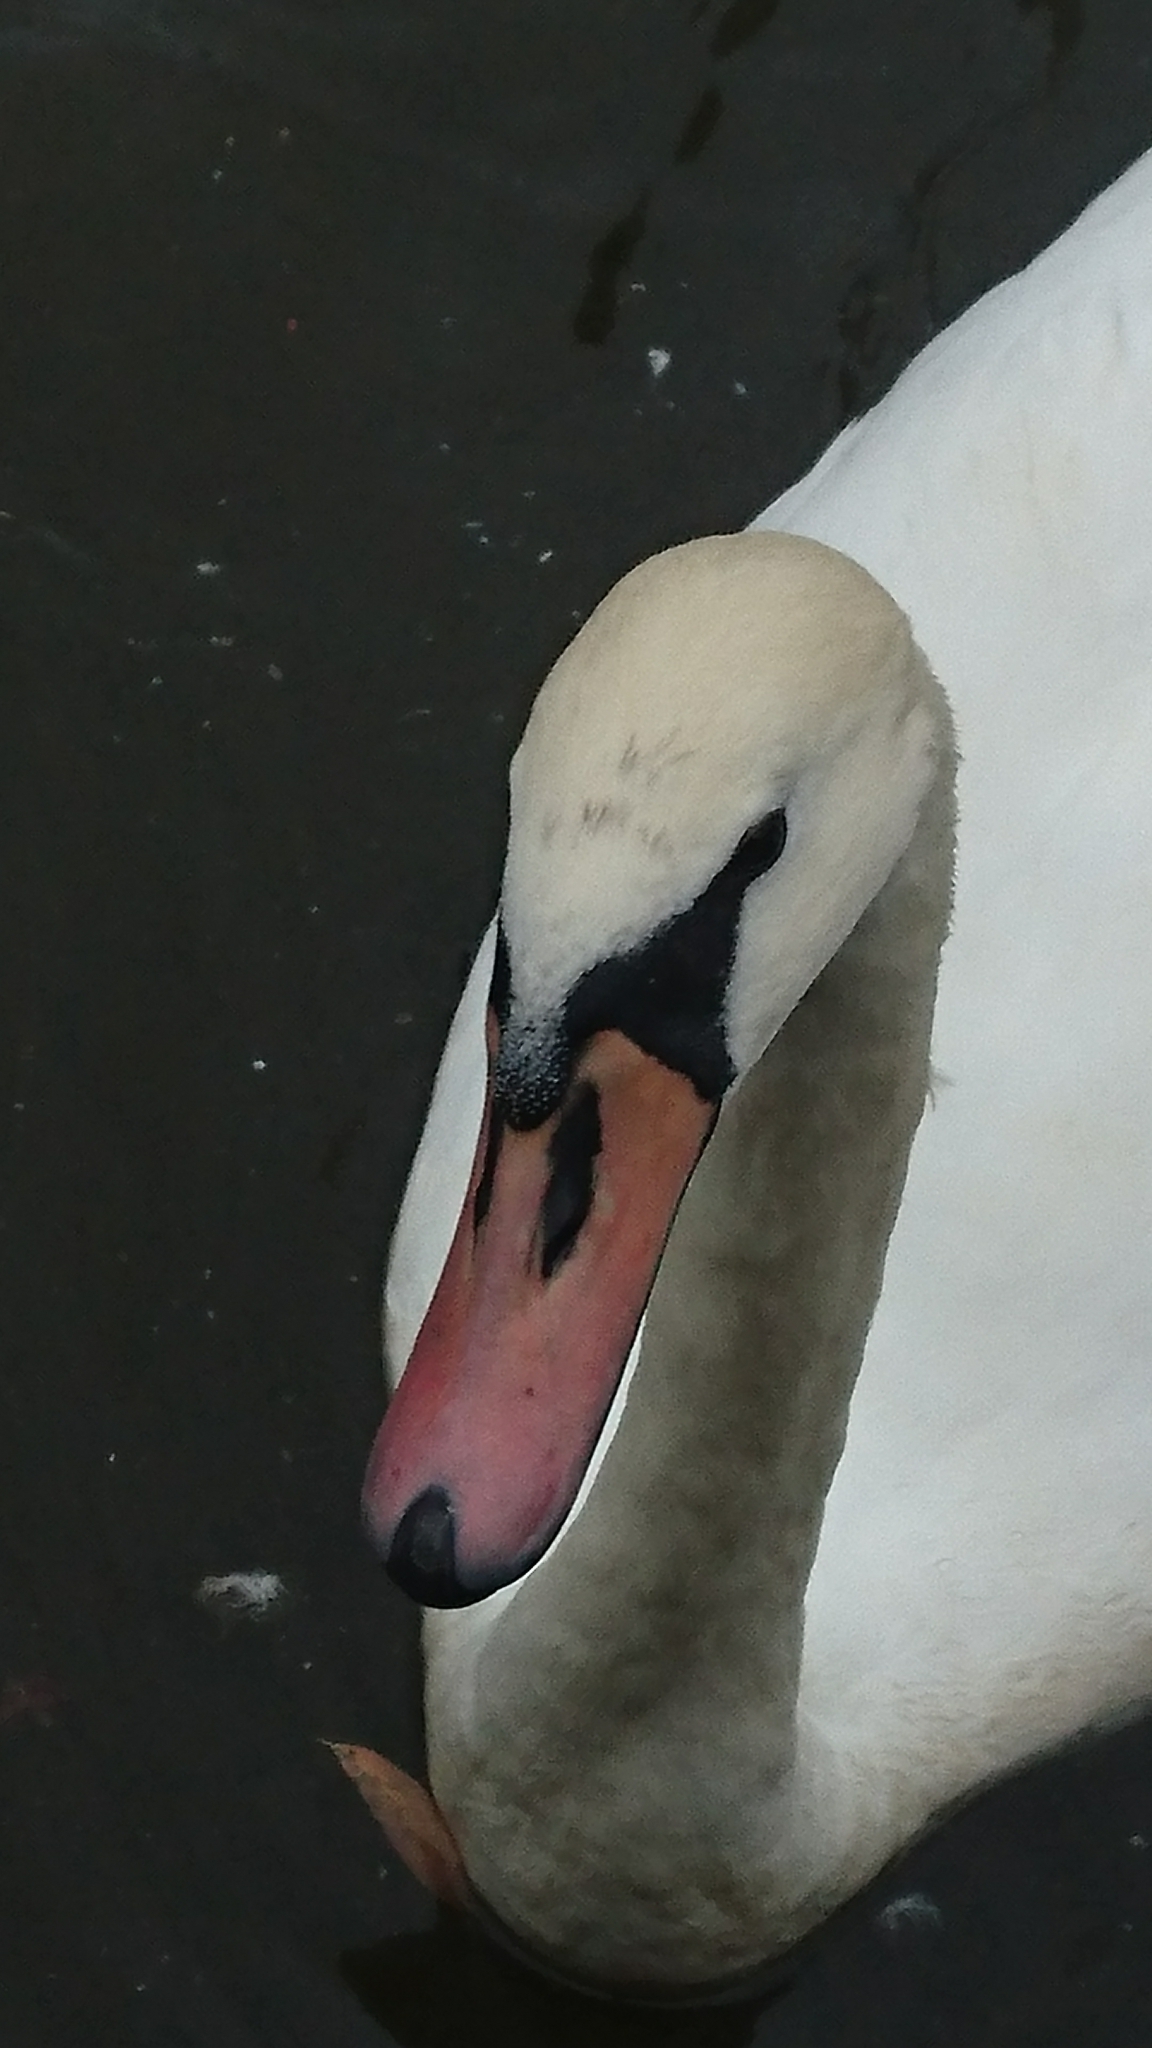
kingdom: Animalia
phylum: Chordata
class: Aves
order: Anseriformes
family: Anatidae
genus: Cygnus
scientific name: Cygnus olor
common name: Mute swan
